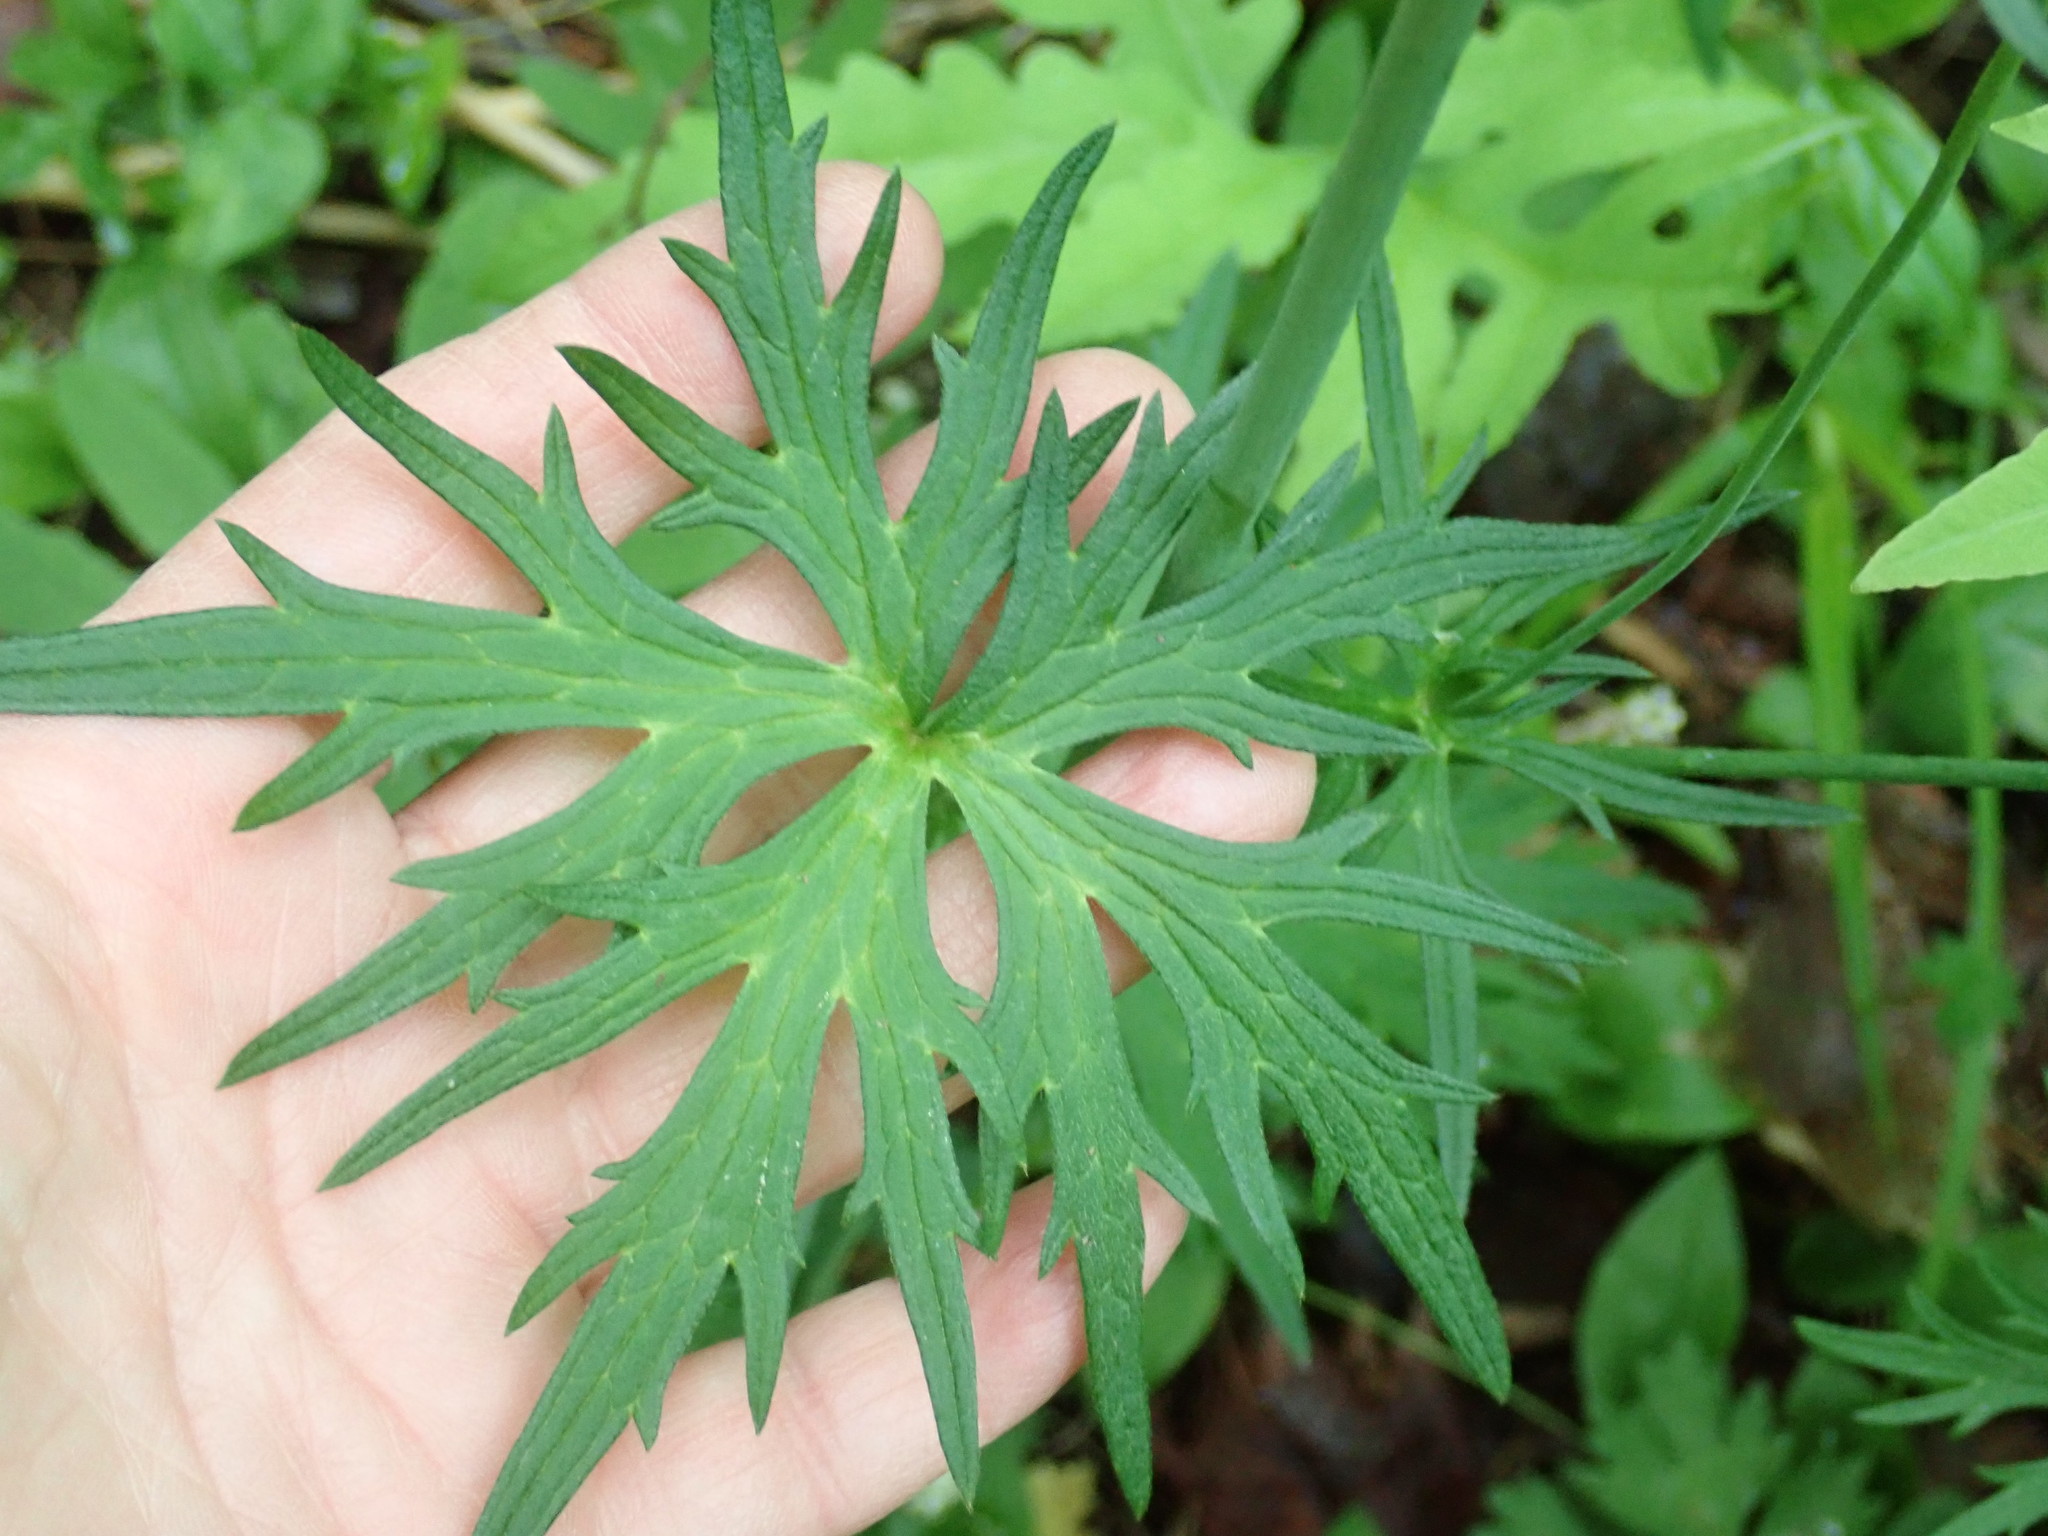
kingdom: Plantae
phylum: Tracheophyta
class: Magnoliopsida
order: Ranunculales
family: Ranunculaceae
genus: Ranunculus
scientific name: Ranunculus acris
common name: Meadow buttercup
